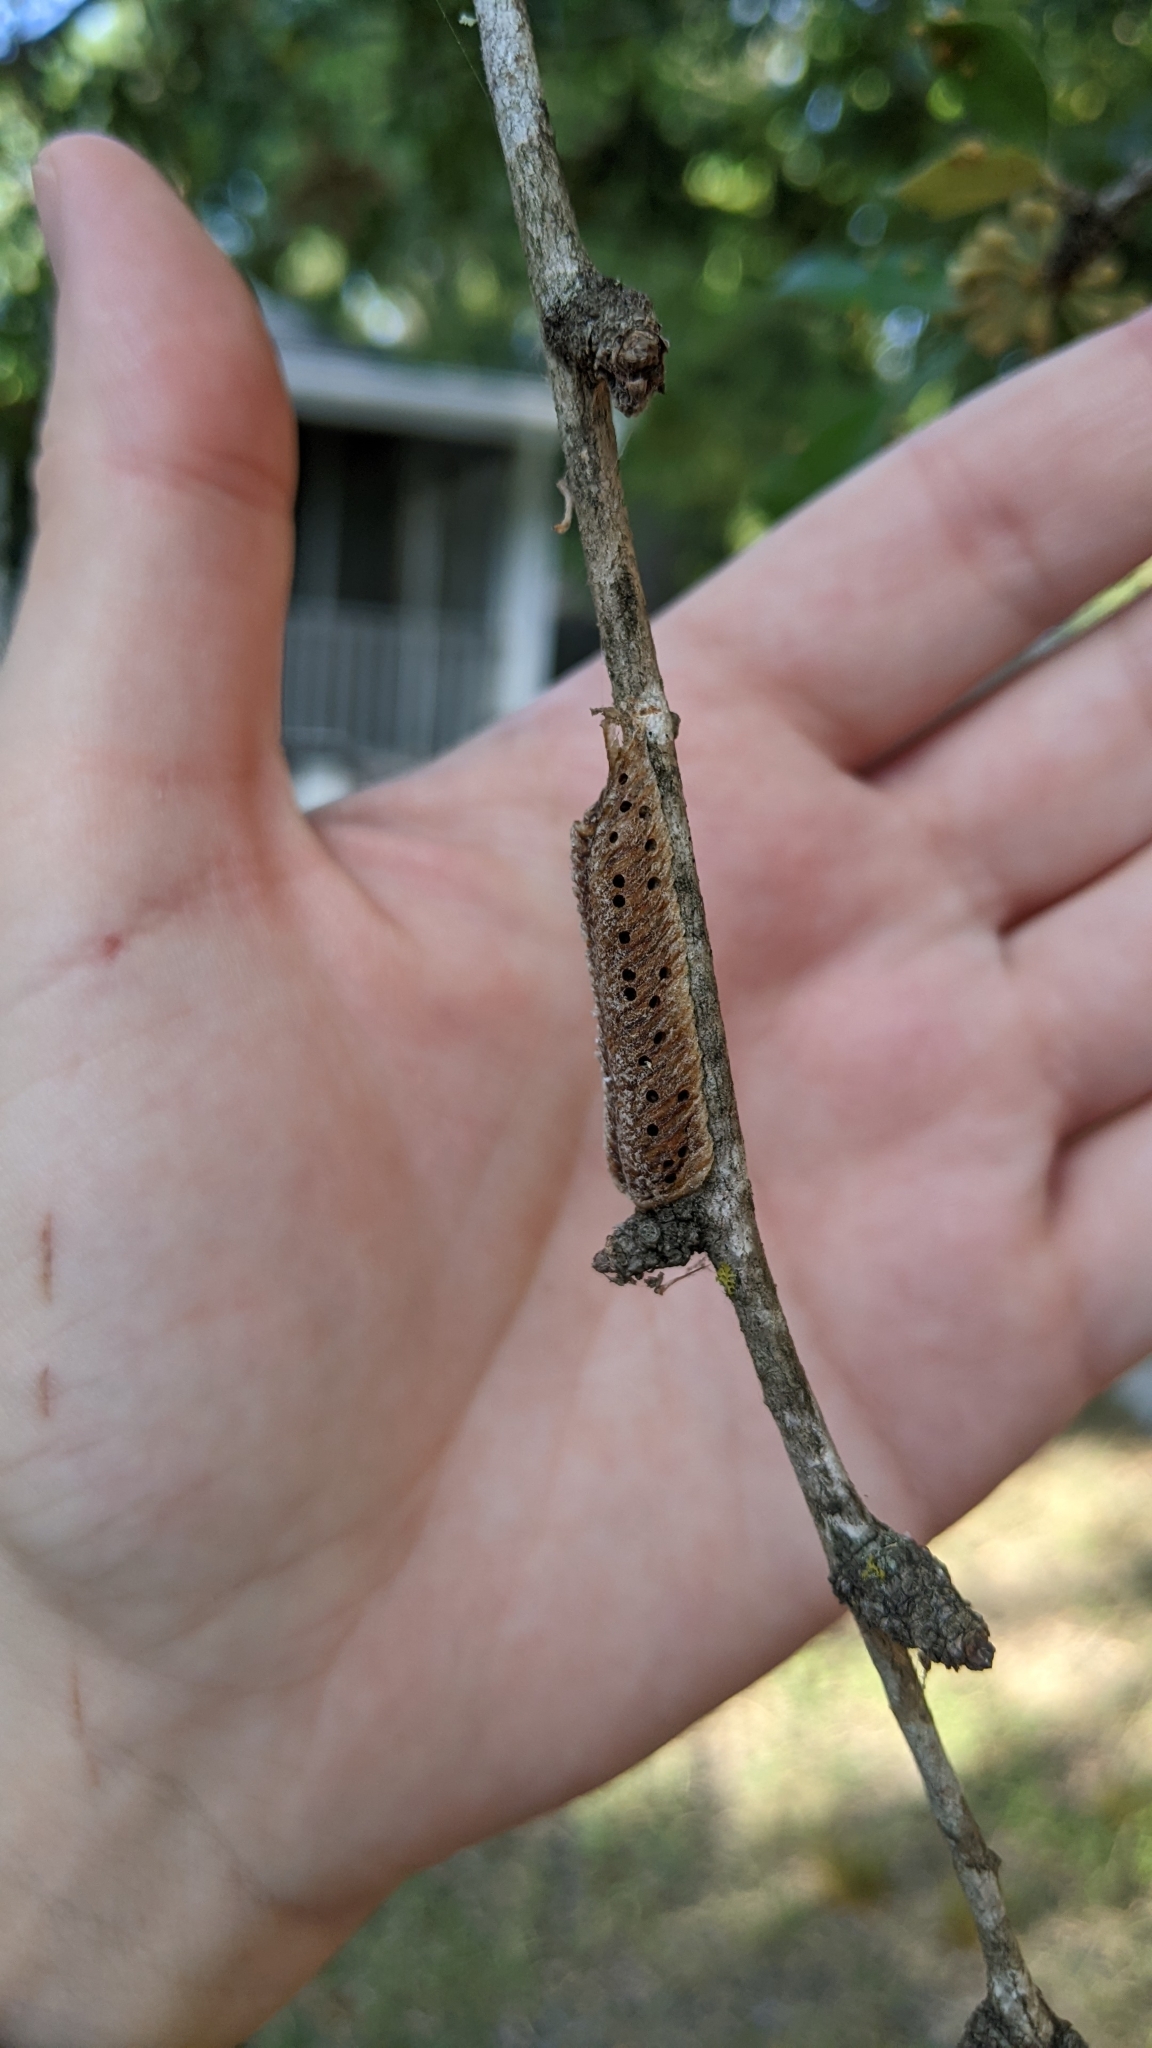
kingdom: Animalia
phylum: Arthropoda
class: Insecta
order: Mantodea
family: Mantidae
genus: Stagmomantis
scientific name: Stagmomantis carolina
